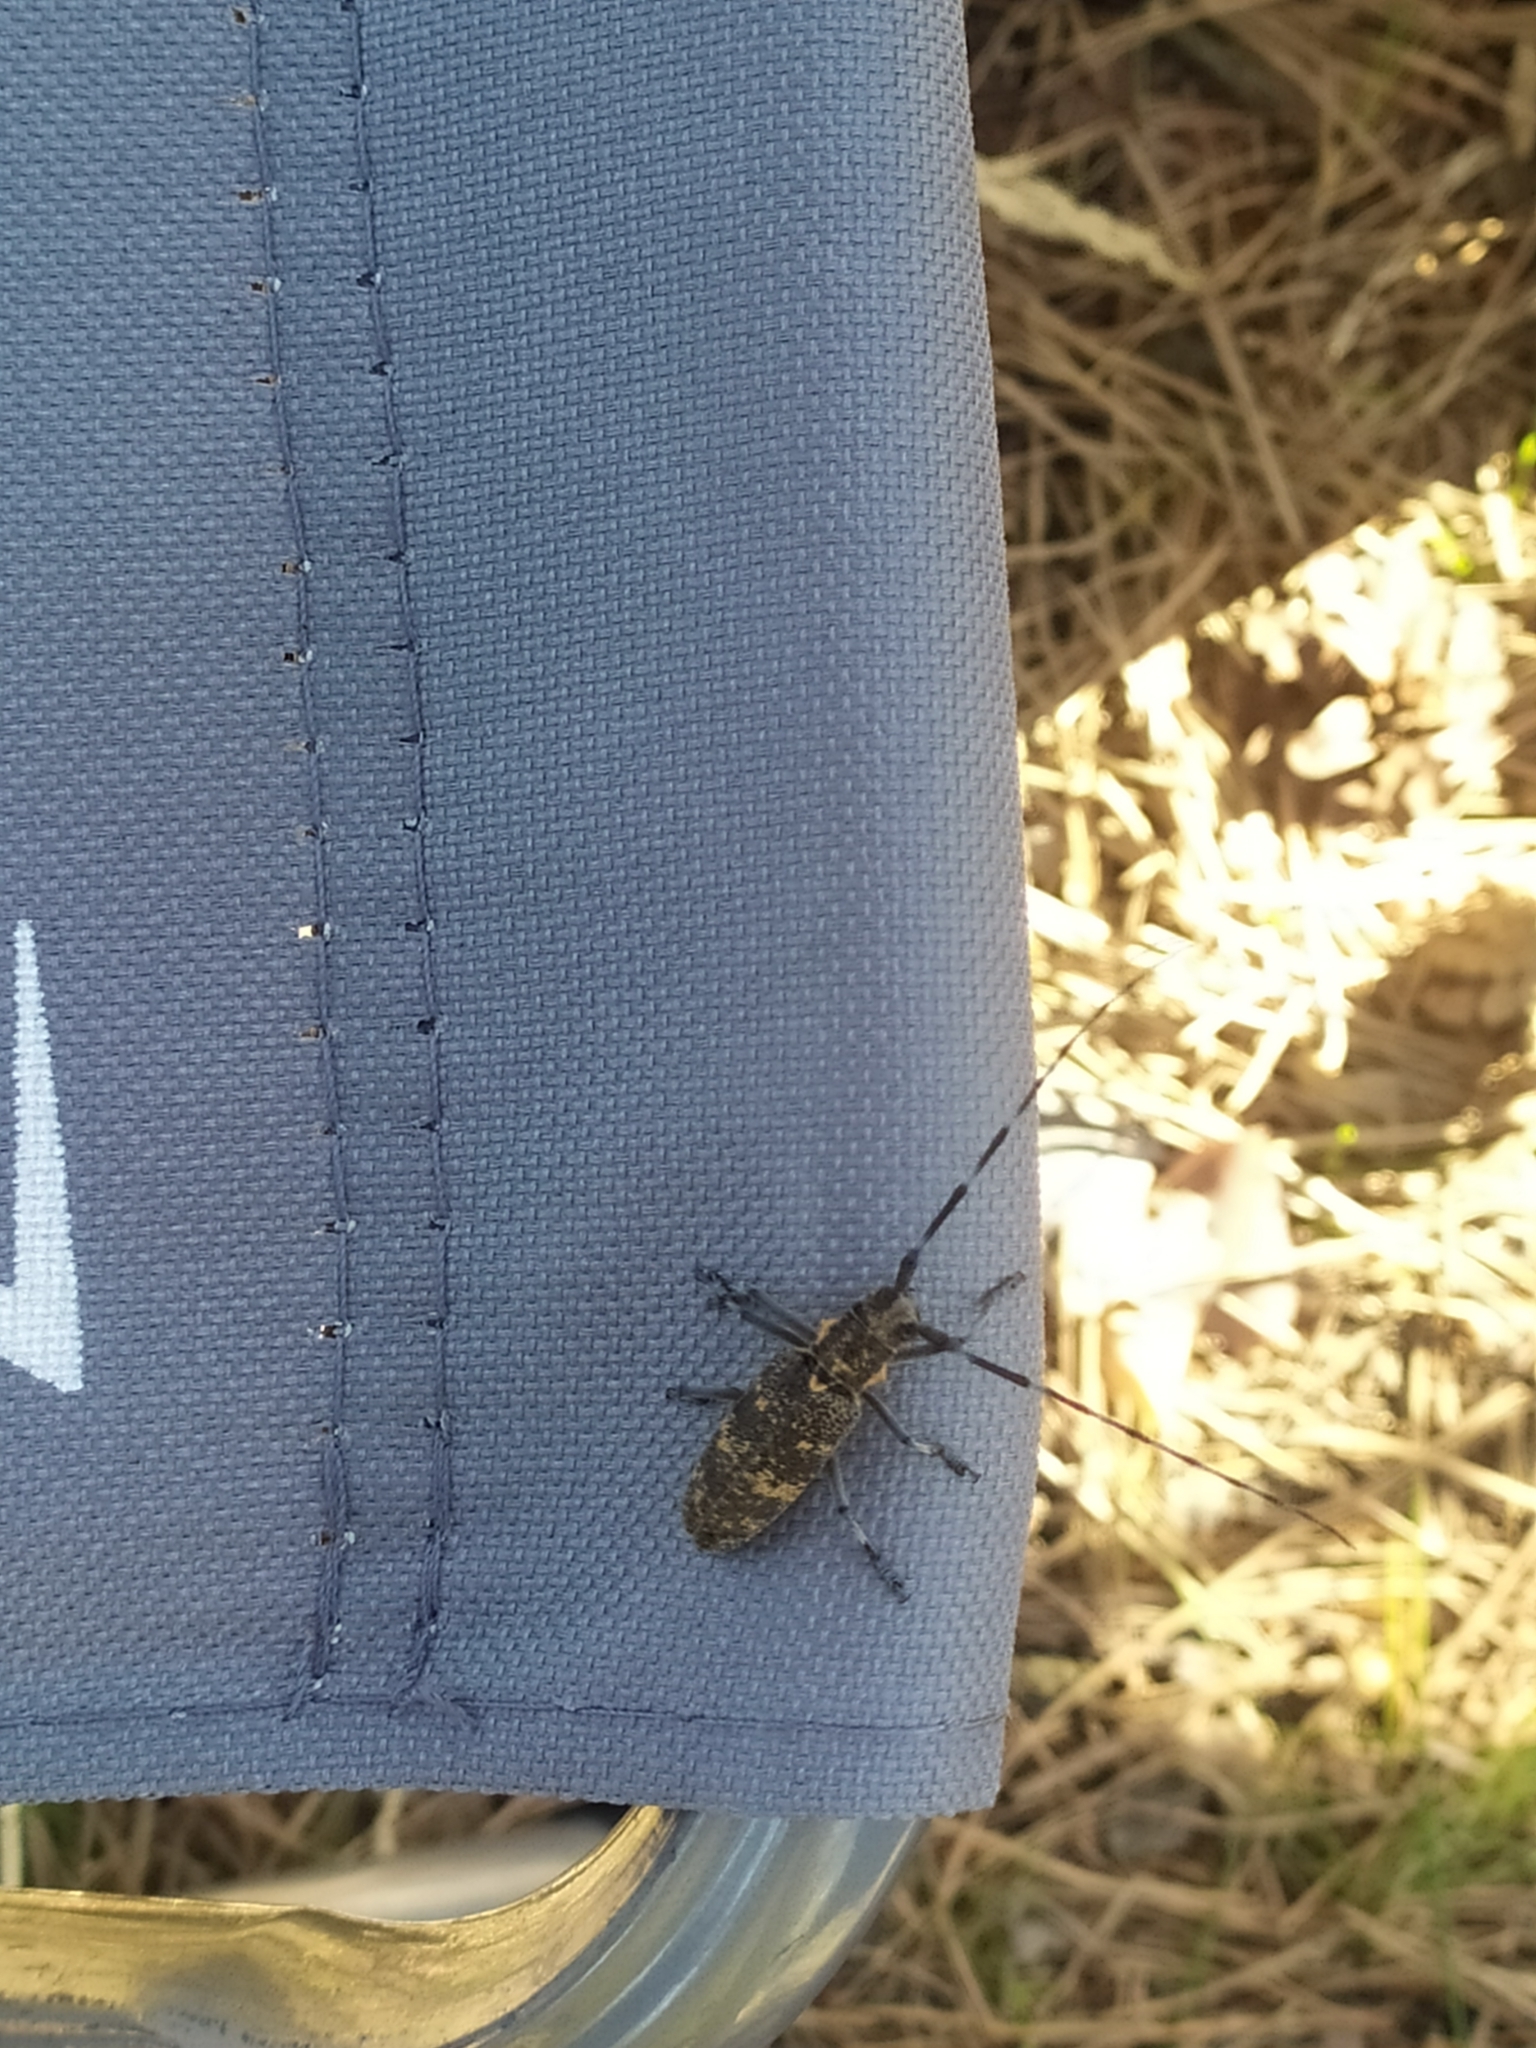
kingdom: Animalia
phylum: Arthropoda
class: Insecta
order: Coleoptera
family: Cerambycidae
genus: Monochamus
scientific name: Monochamus galloprovincialis
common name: Pine sawyer
